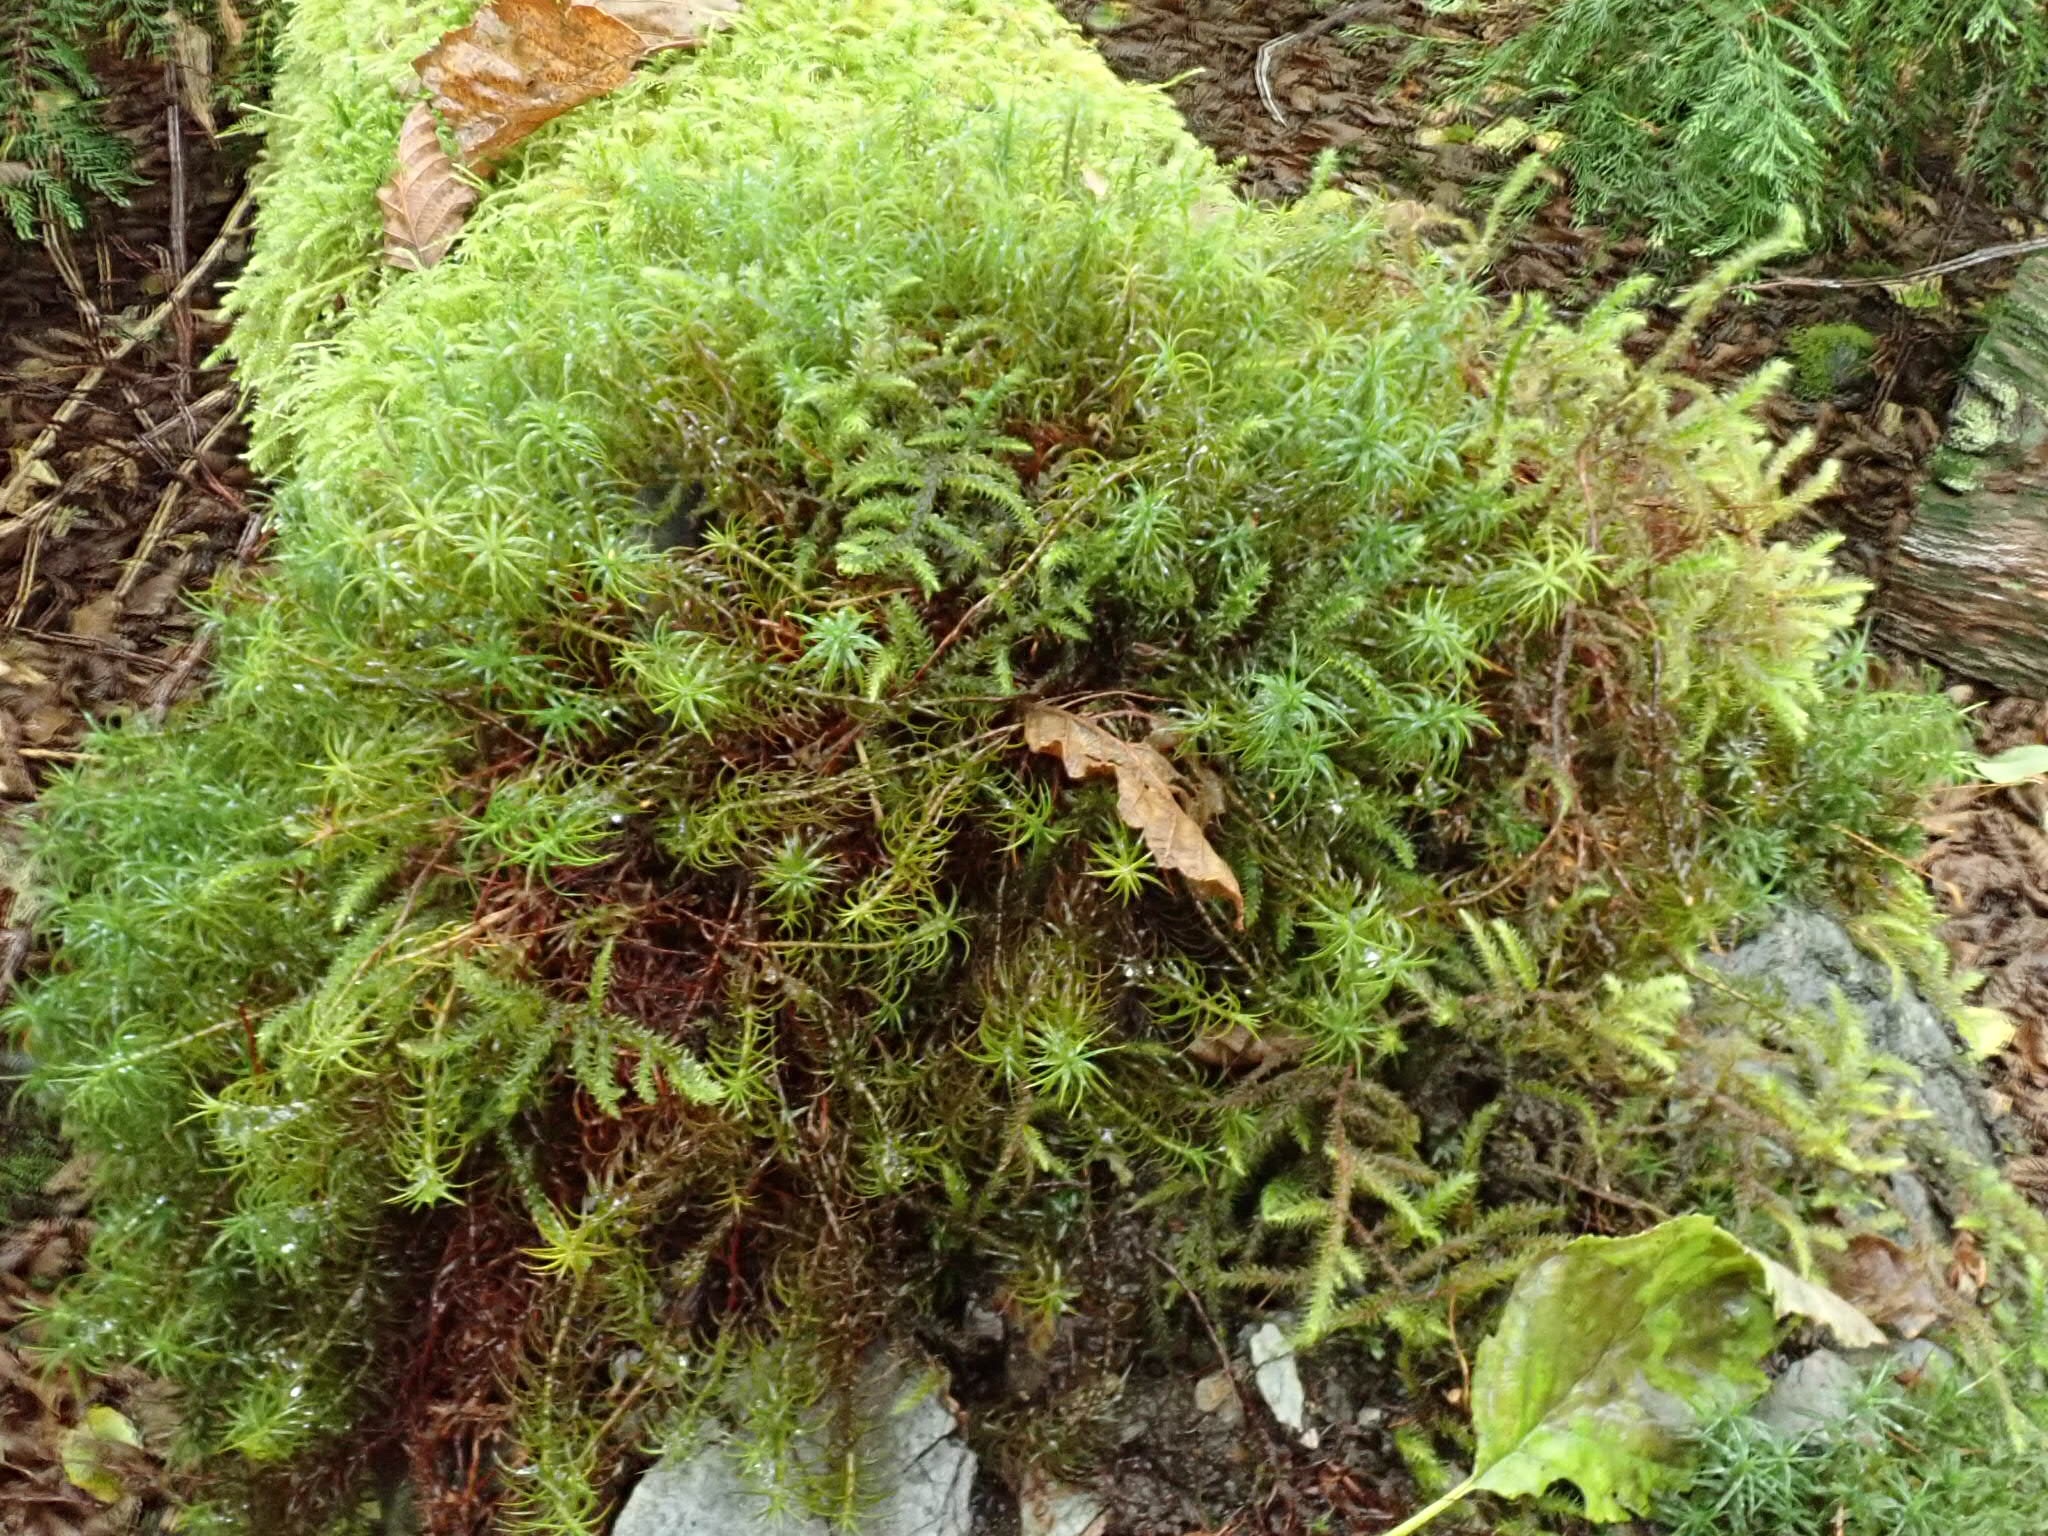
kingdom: Plantae
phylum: Bryophyta
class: Bryopsida
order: Hypnales
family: Hylocomiaceae
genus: Rhytidiadelphus
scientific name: Rhytidiadelphus loreus
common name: Lanky moss
